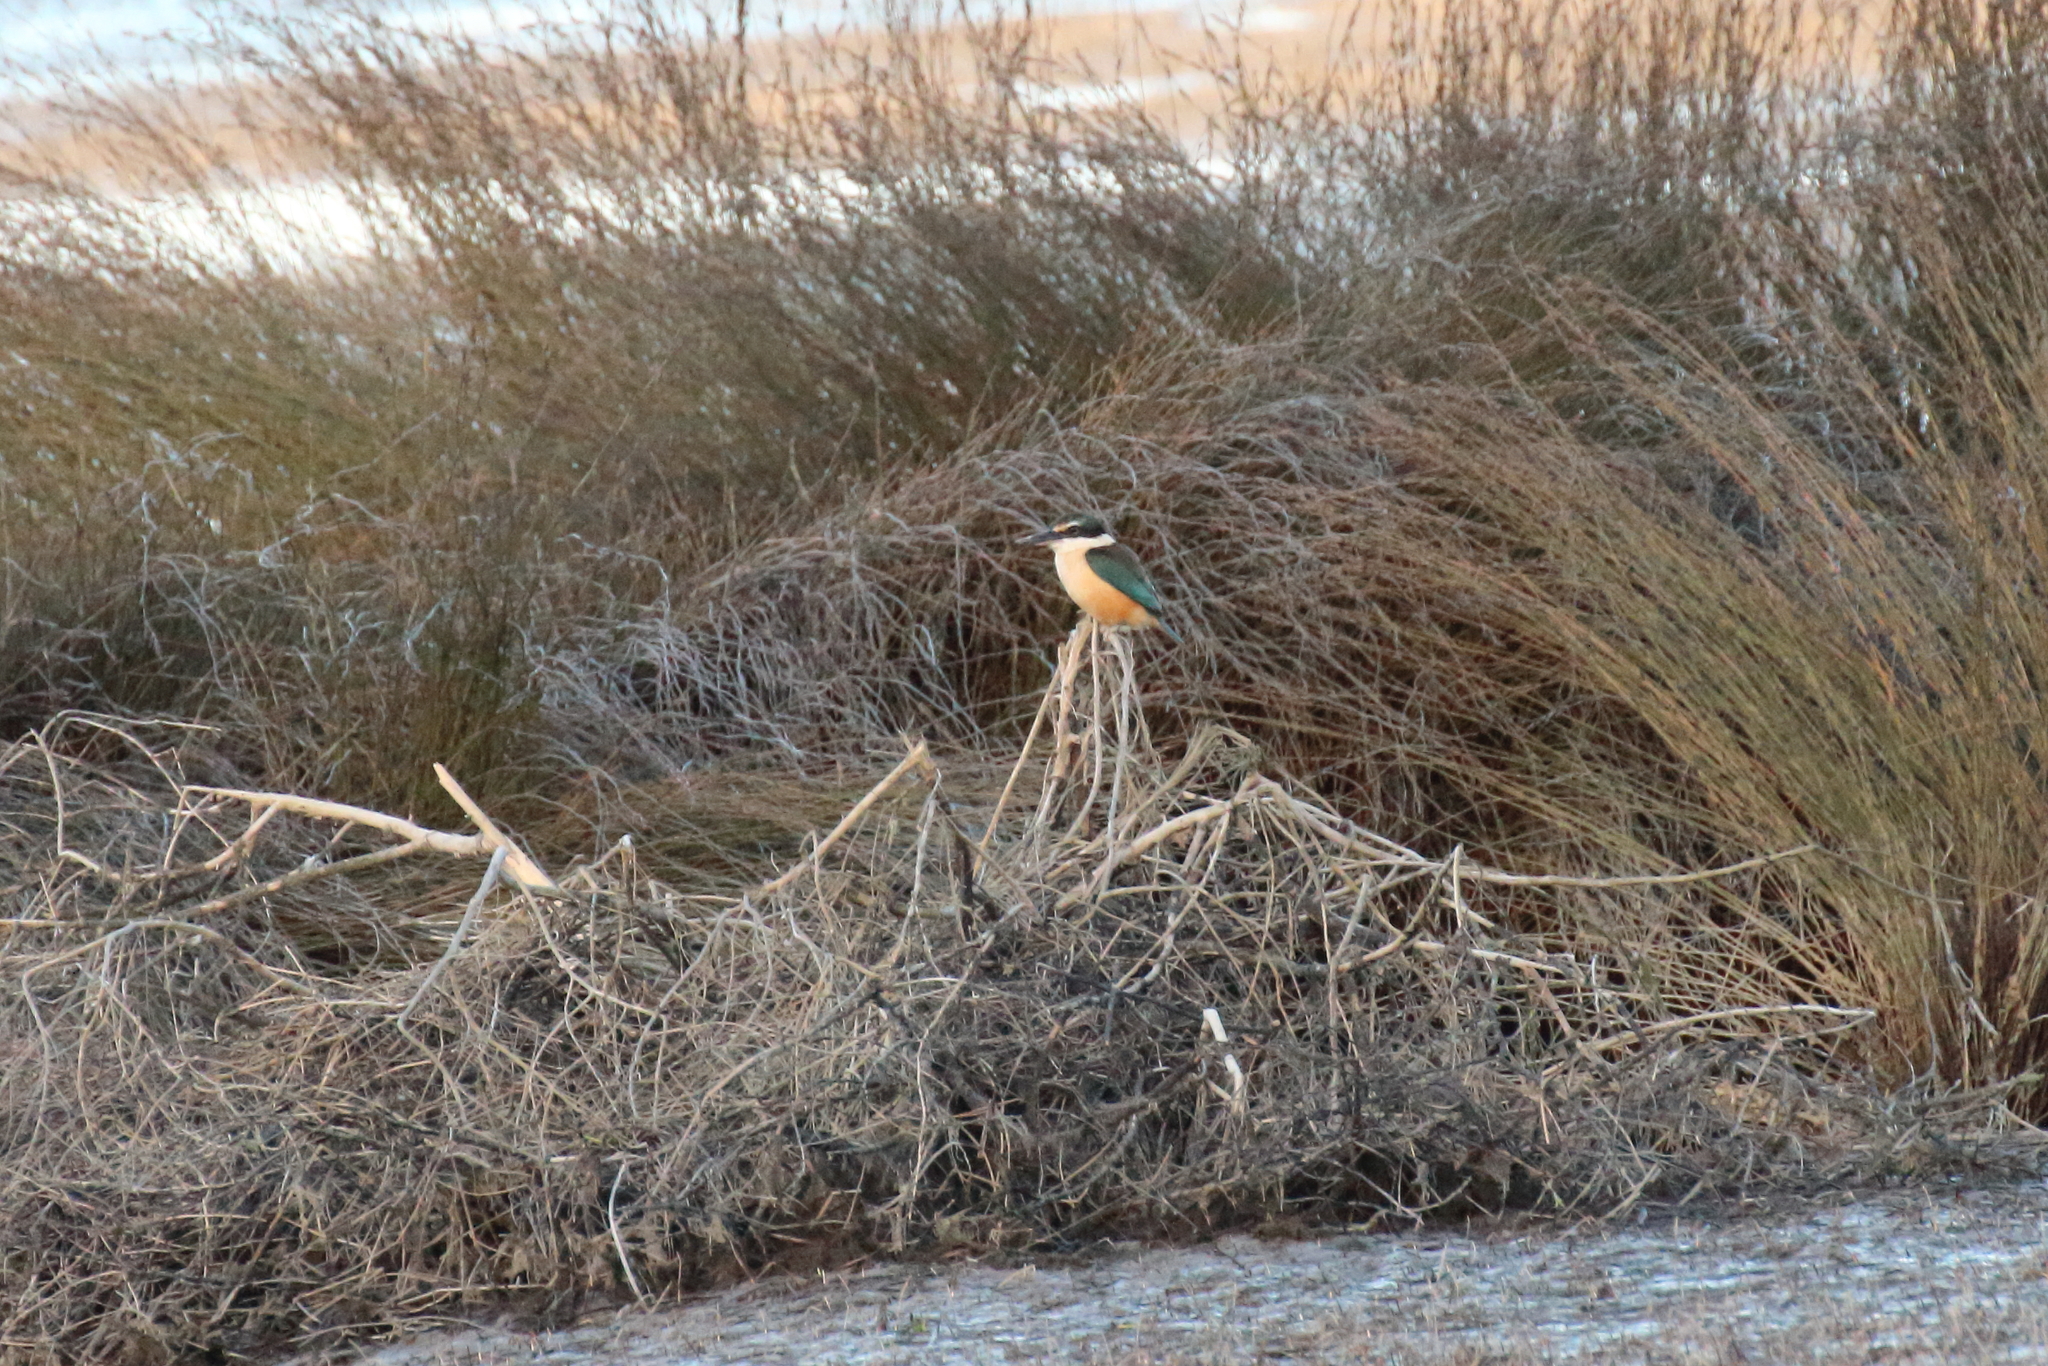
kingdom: Animalia
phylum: Chordata
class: Aves
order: Coraciiformes
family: Alcedinidae
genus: Todiramphus
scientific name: Todiramphus sanctus
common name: Sacred kingfisher
